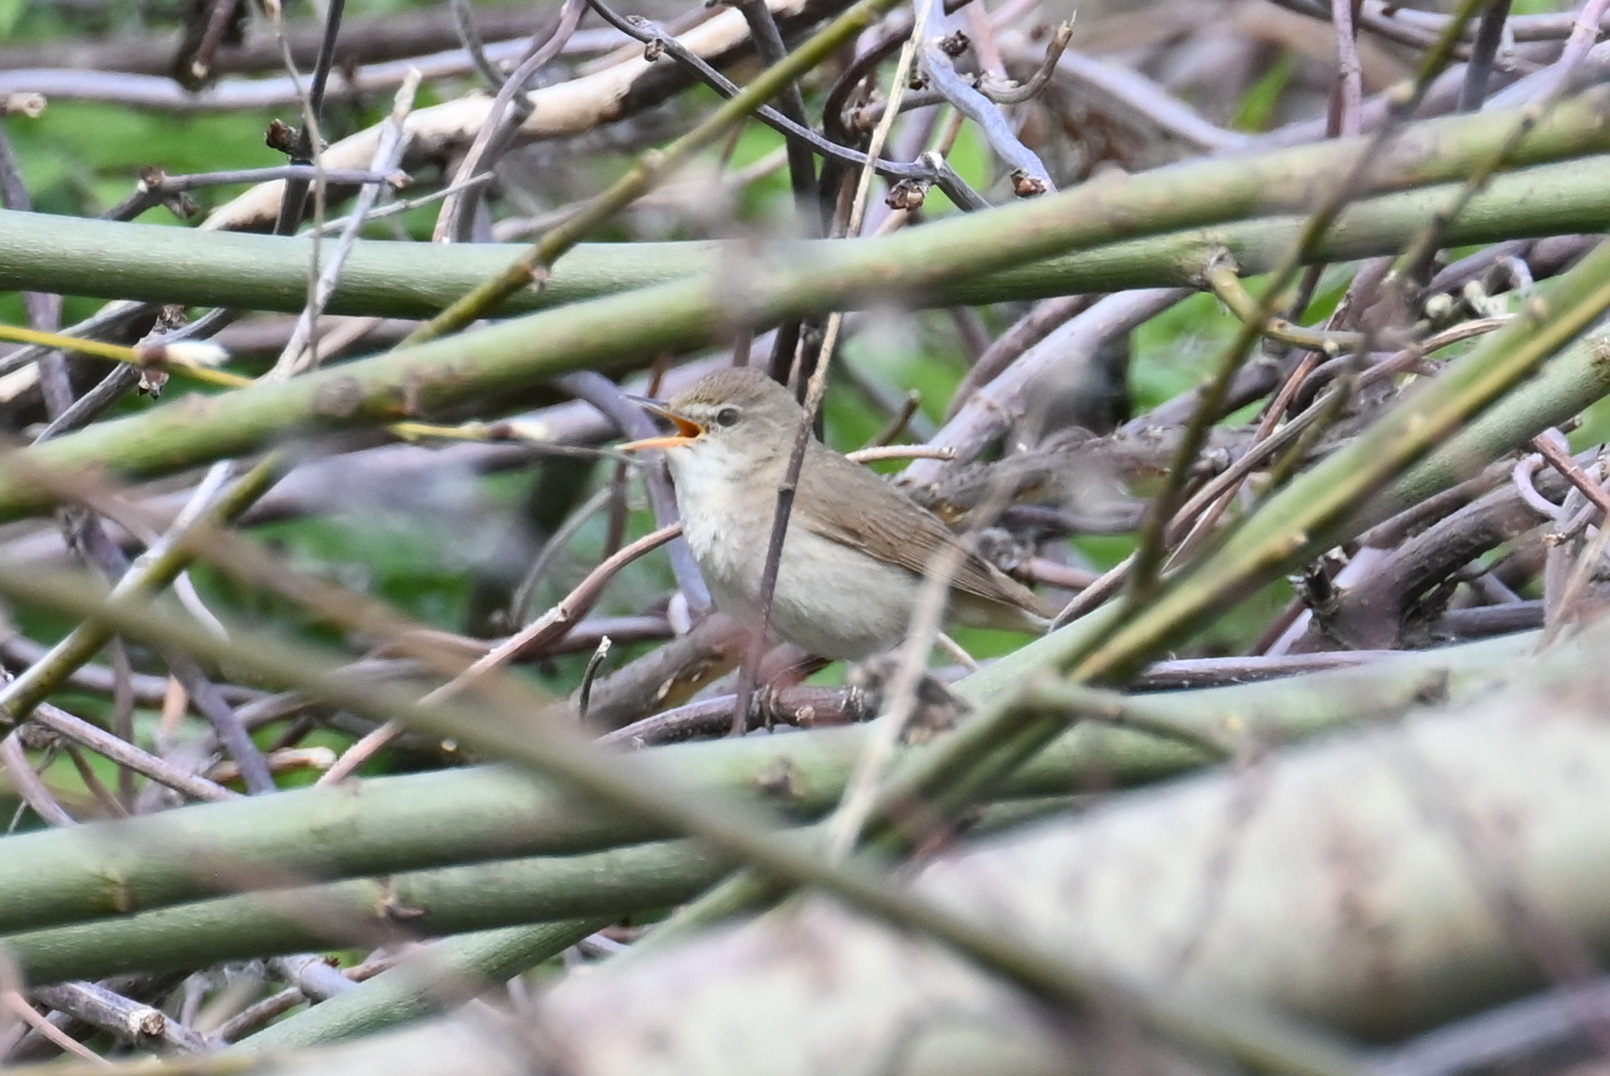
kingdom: Animalia
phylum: Chordata
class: Aves
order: Passeriformes
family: Acrocephalidae
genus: Acrocephalus
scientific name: Acrocephalus dumetorum
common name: Blyth's reed warbler
